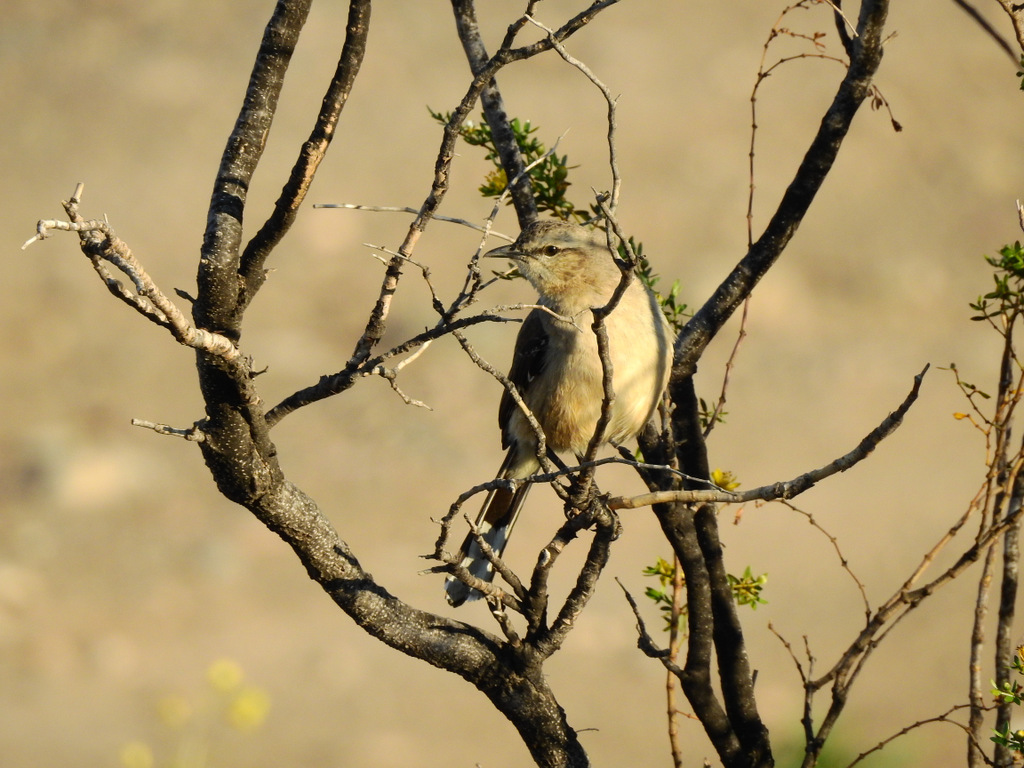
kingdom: Animalia
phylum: Chordata
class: Aves
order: Passeriformes
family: Mimidae
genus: Mimus
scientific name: Mimus patagonicus
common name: Patagonian mockingbird
